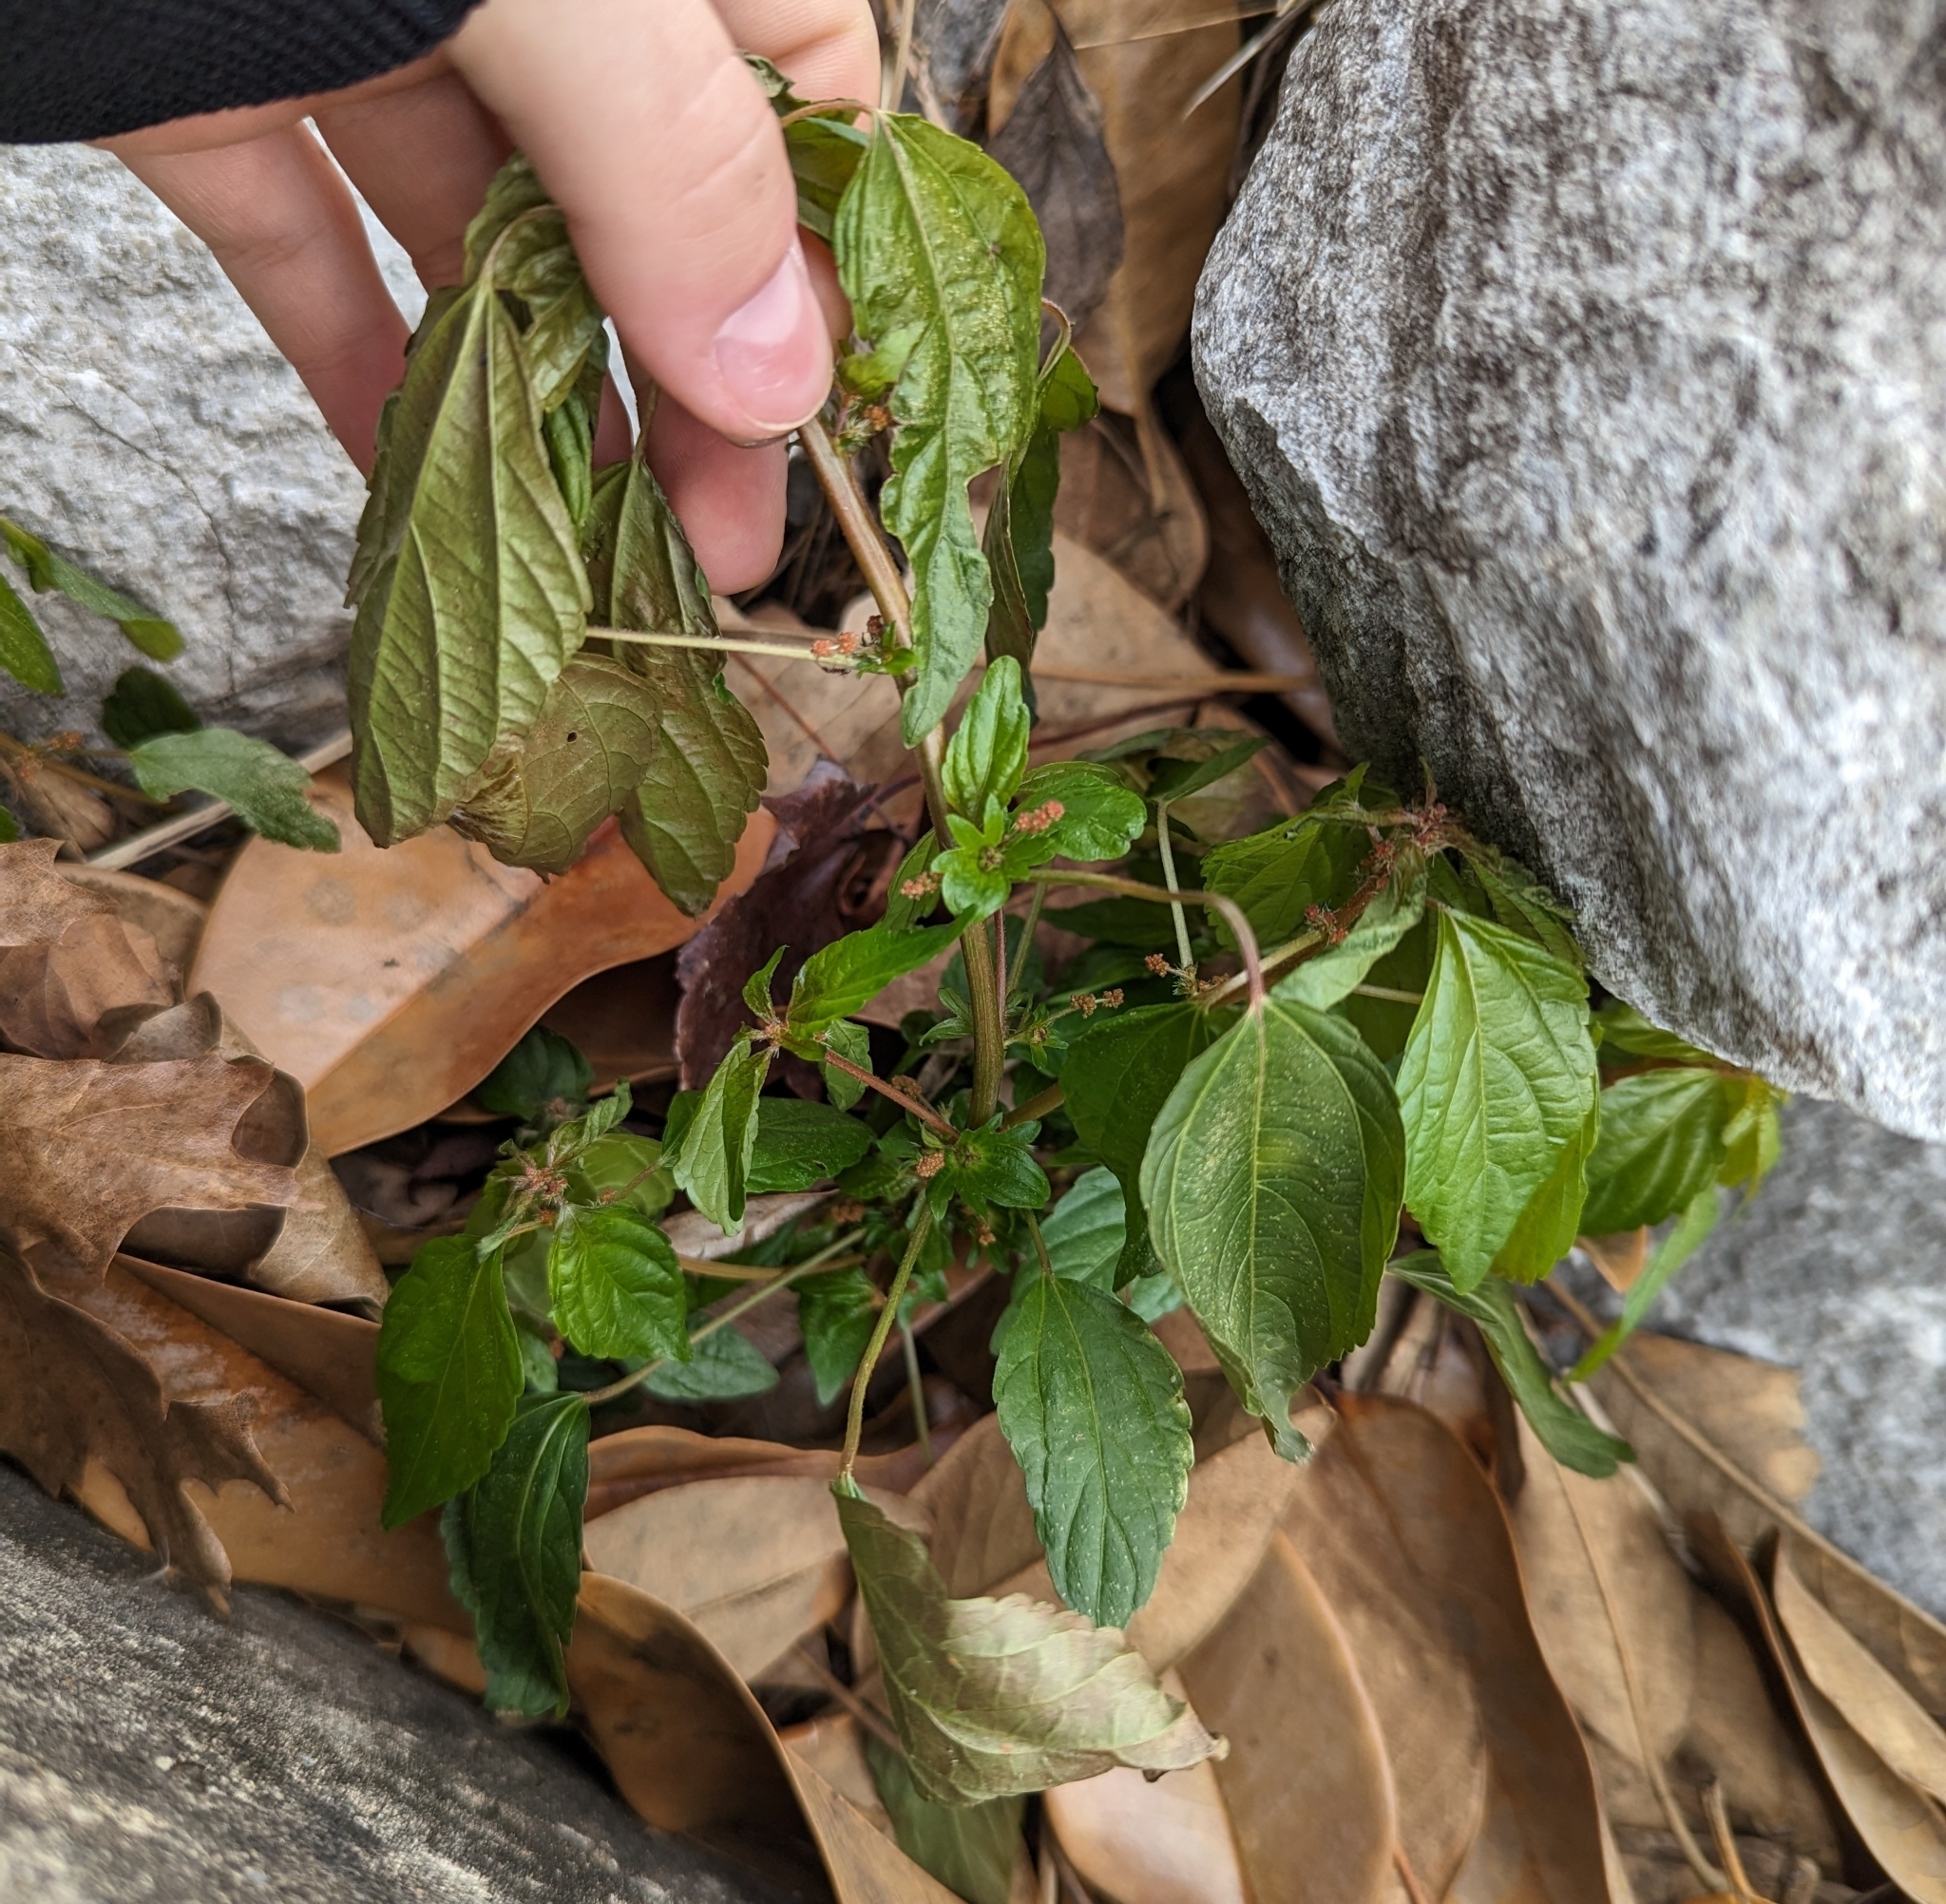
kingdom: Plantae
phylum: Tracheophyta
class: Magnoliopsida
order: Malpighiales
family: Euphorbiaceae
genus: Acalypha
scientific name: Acalypha rhomboidea
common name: Rhombic copperleaf
